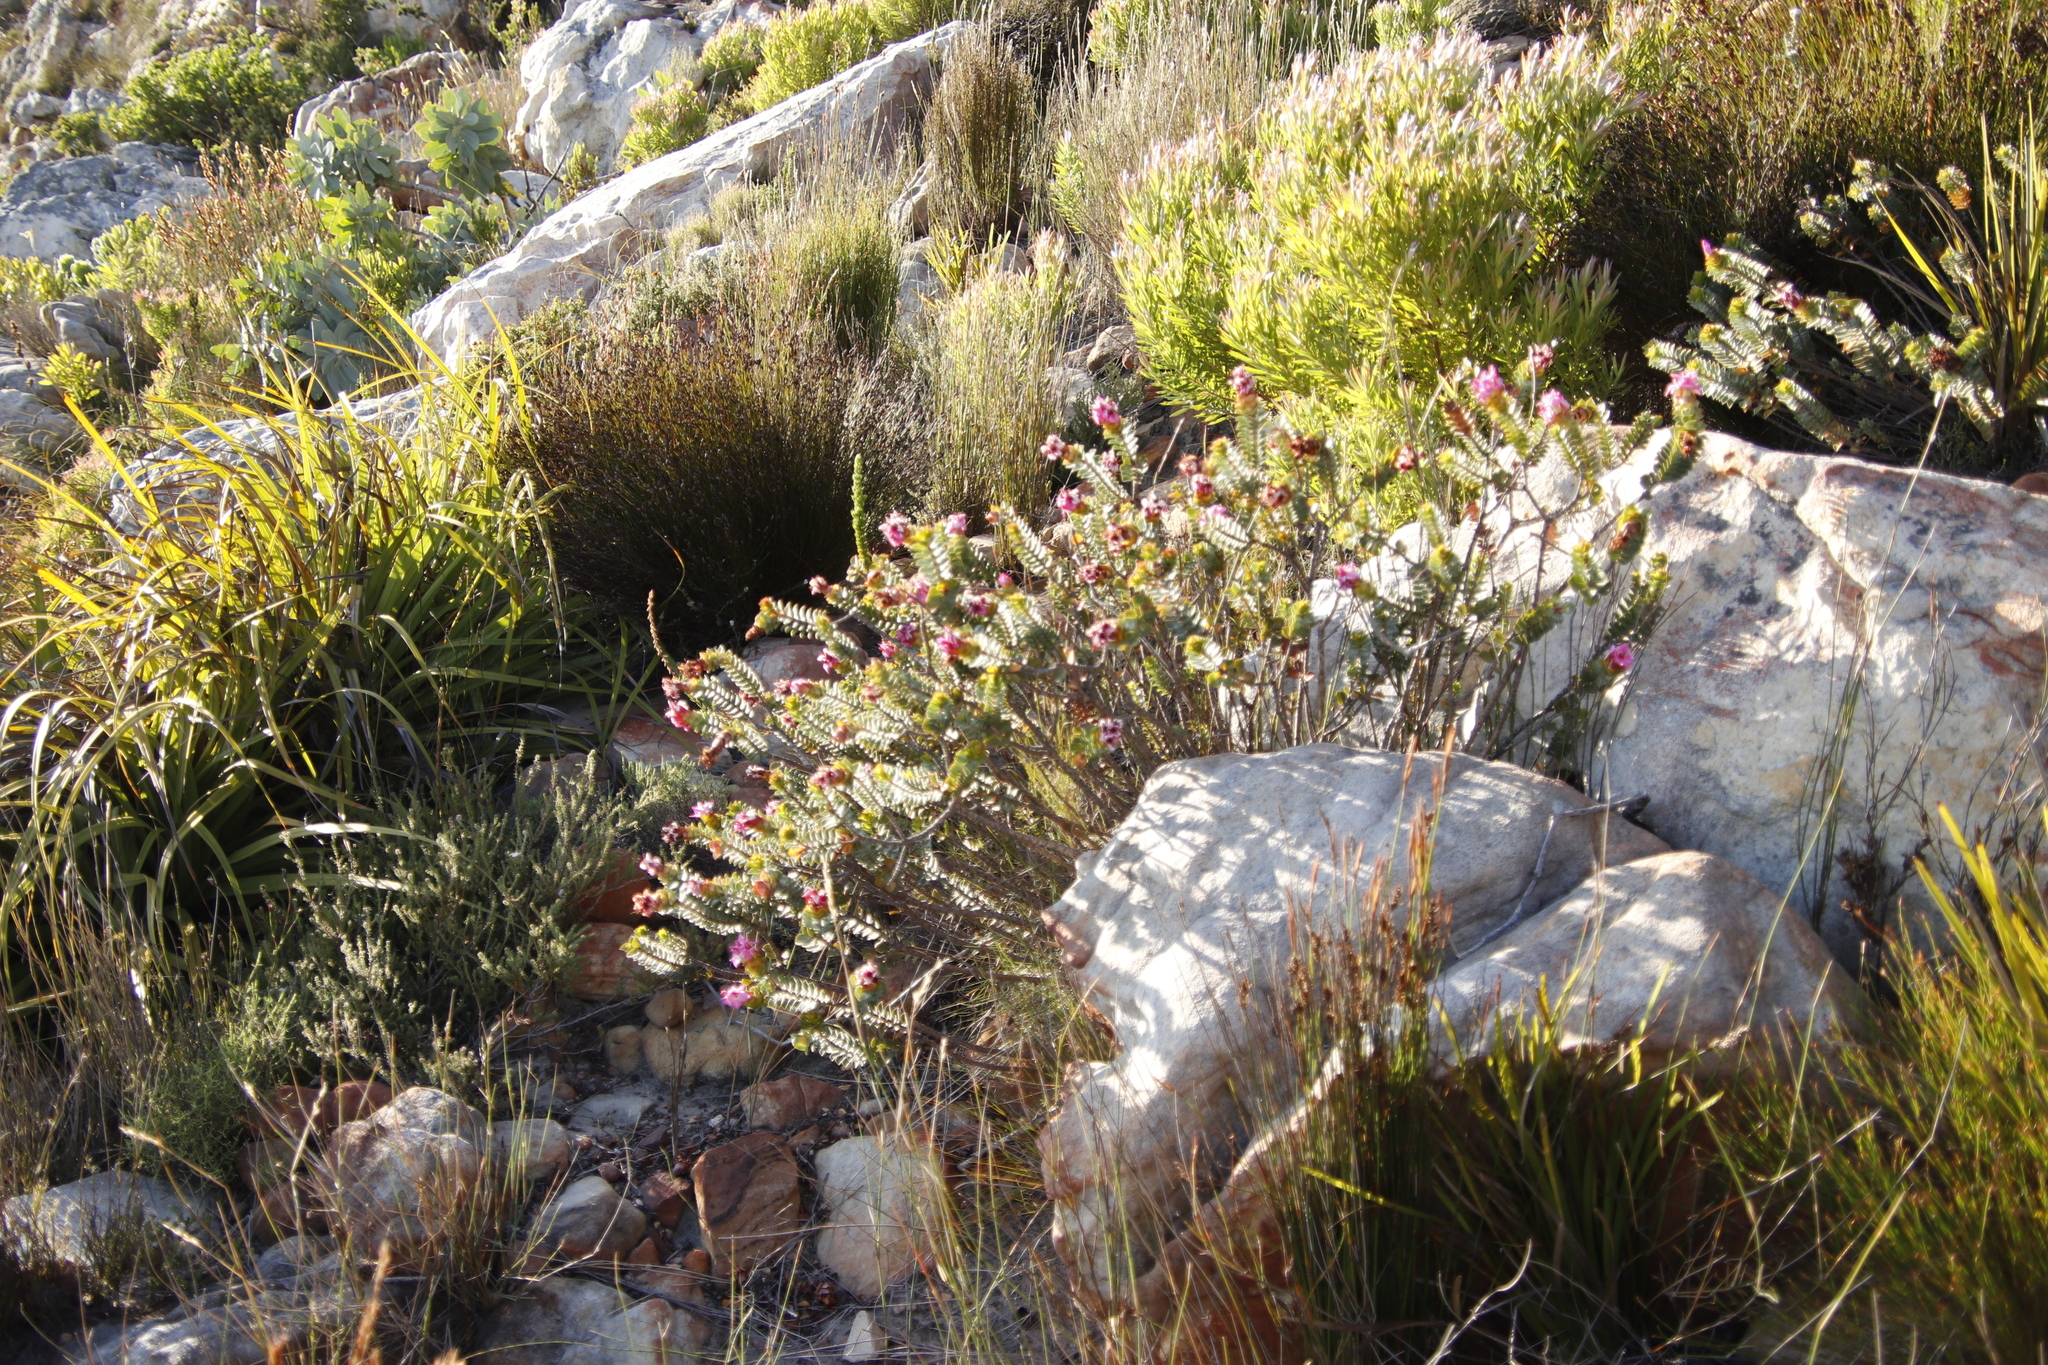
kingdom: Plantae
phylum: Tracheophyta
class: Magnoliopsida
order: Myrtales
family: Penaeaceae
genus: Saltera
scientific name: Saltera sarcocolla
